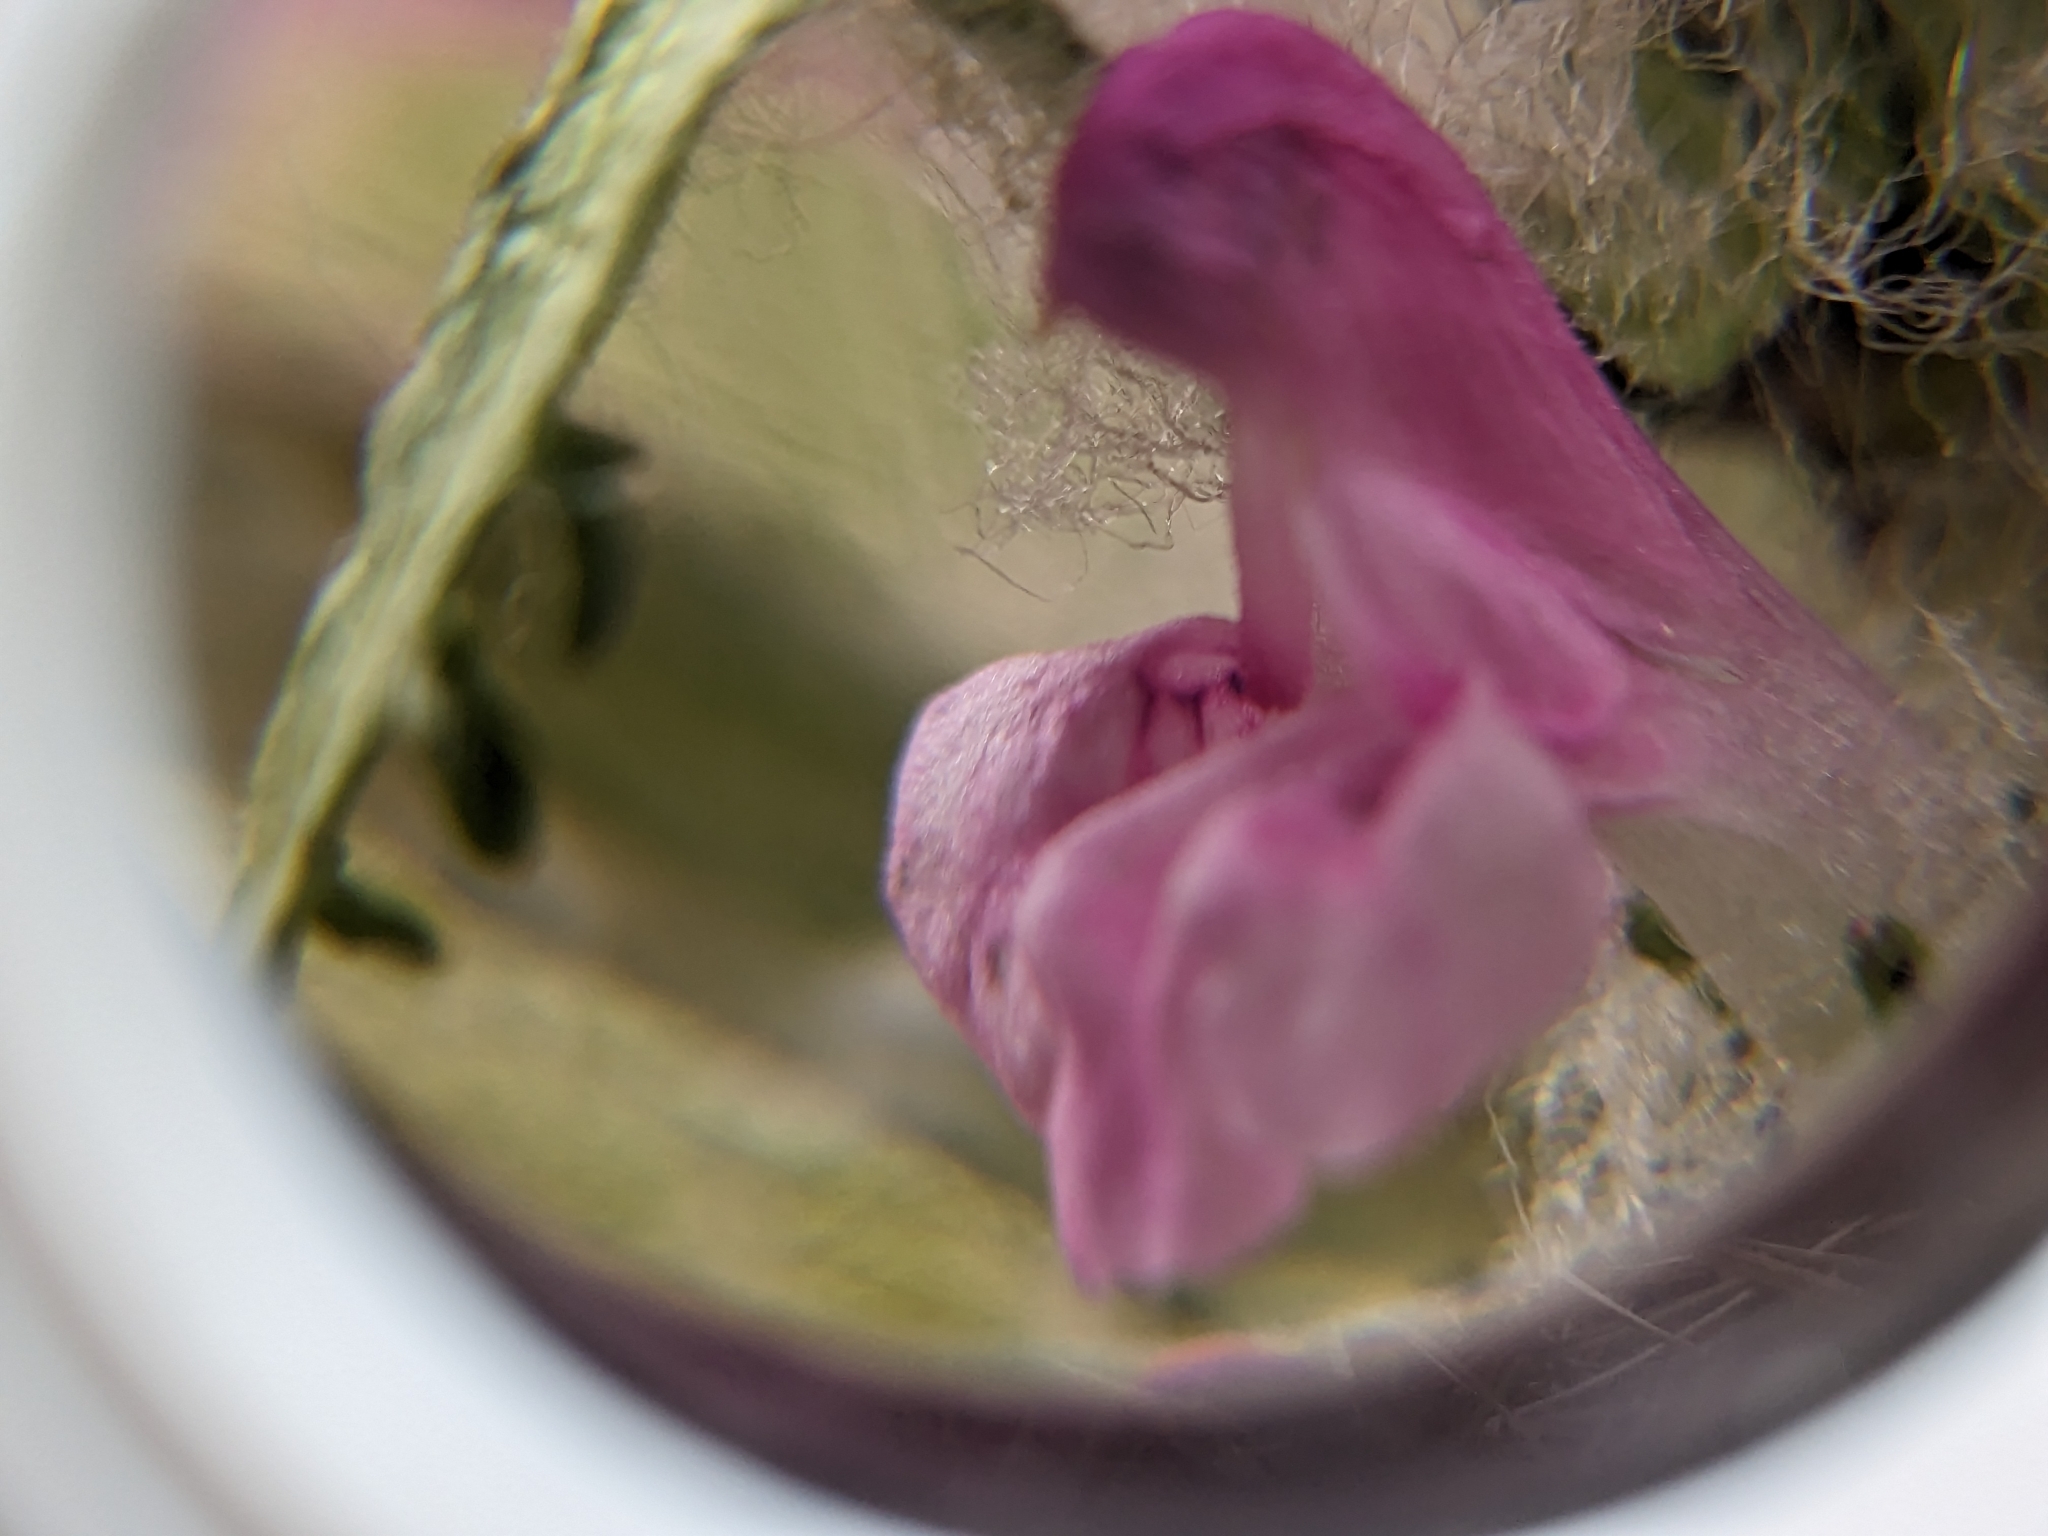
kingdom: Plantae
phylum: Tracheophyta
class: Magnoliopsida
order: Lamiales
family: Orobanchaceae
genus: Pedicularis
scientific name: Pedicularis lanata
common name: Woolly lousewort
